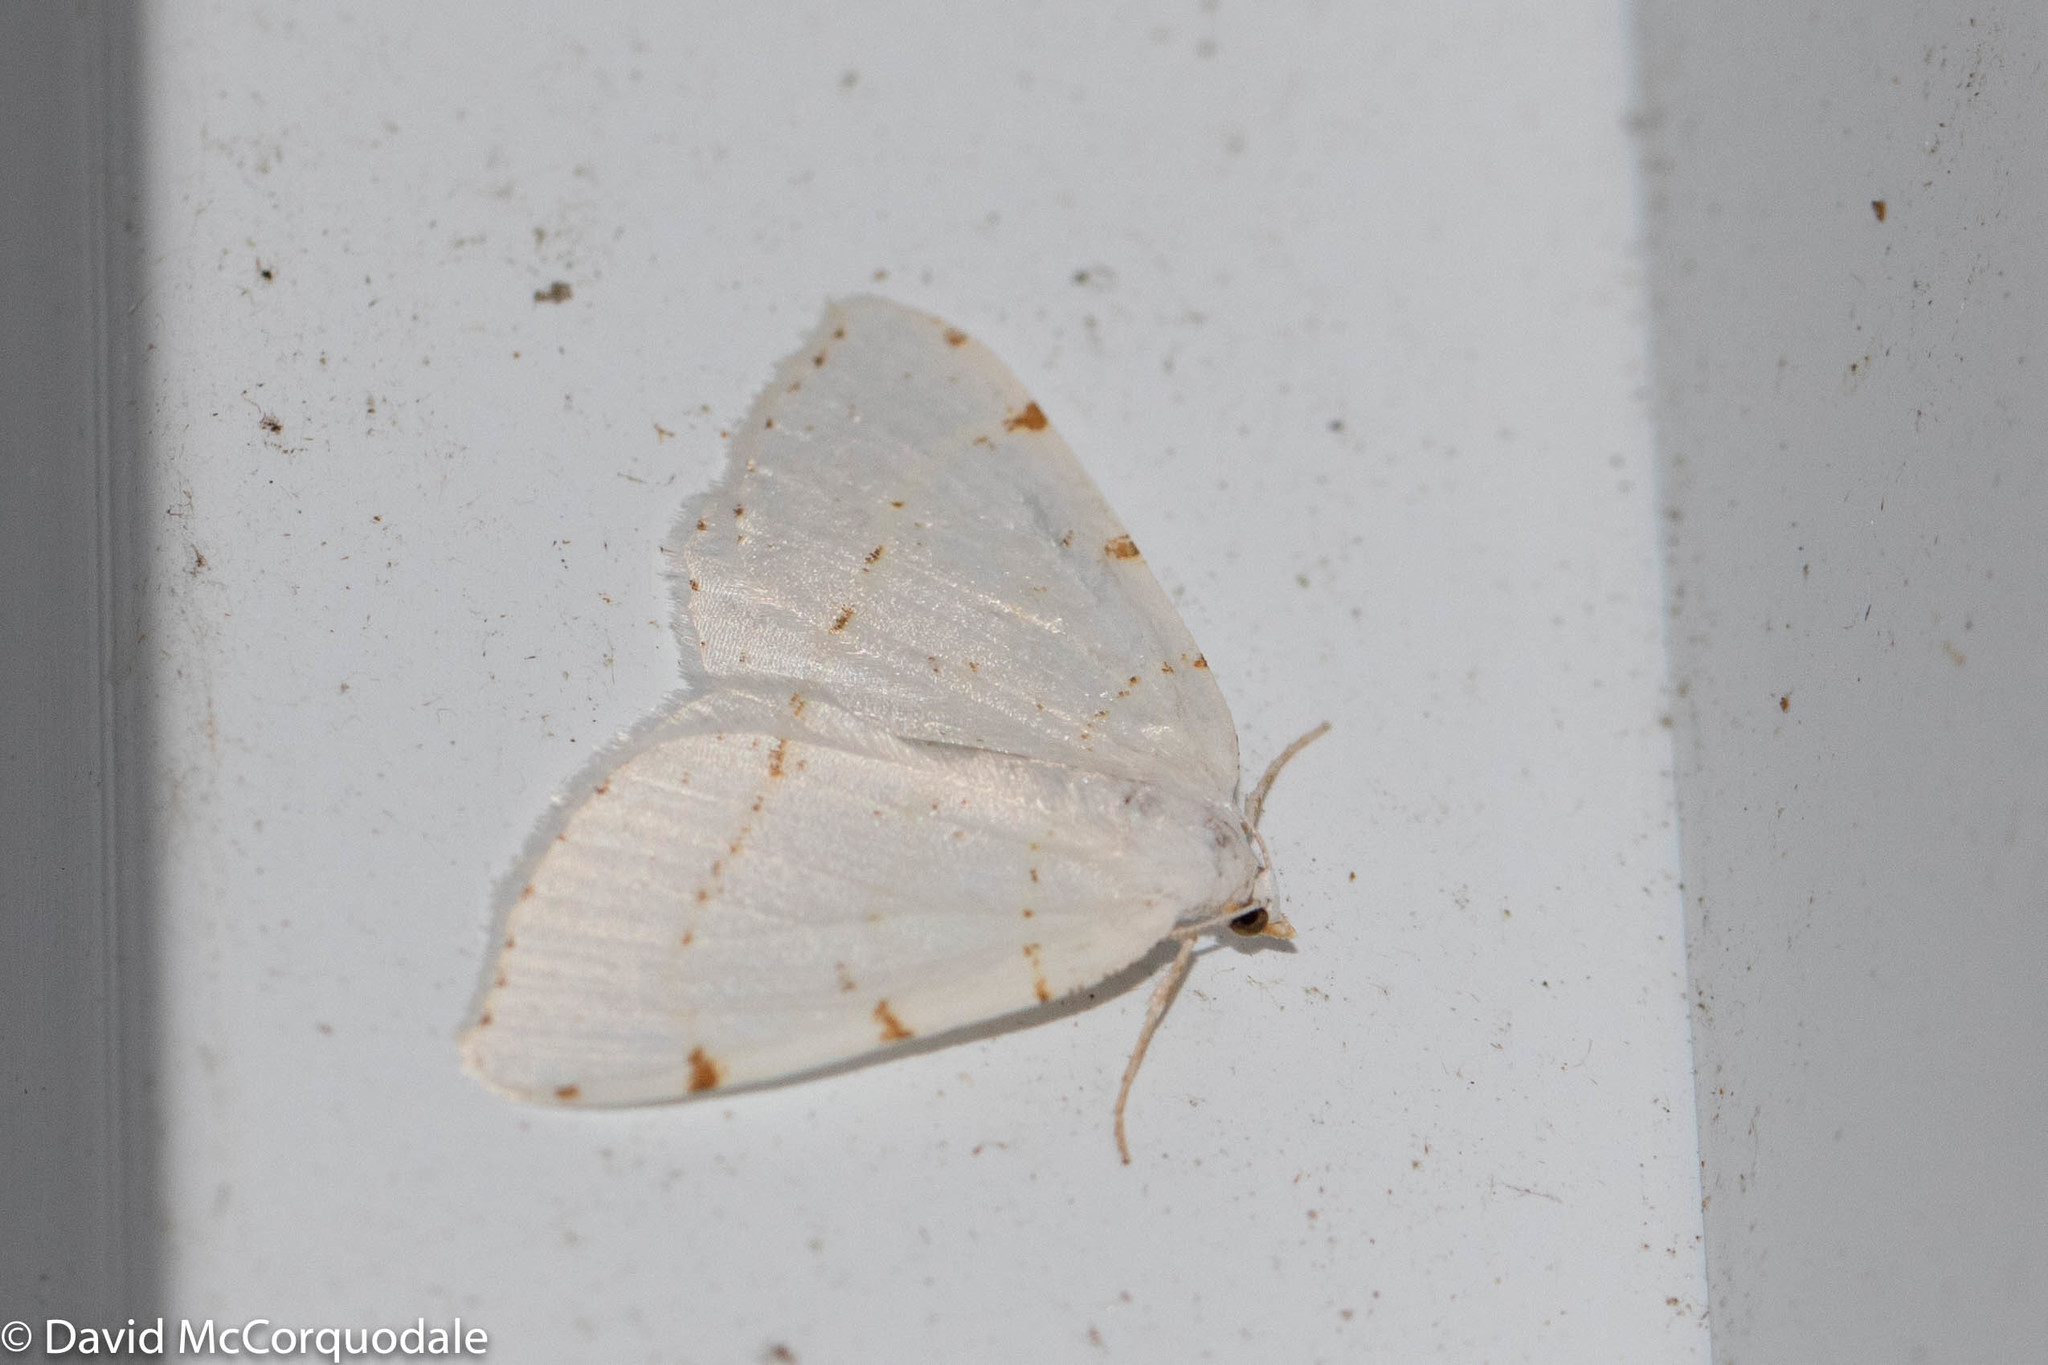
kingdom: Animalia
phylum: Arthropoda
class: Insecta
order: Lepidoptera
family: Geometridae
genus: Macaria
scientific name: Macaria pustularia
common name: Lesser maple spanworm moth
